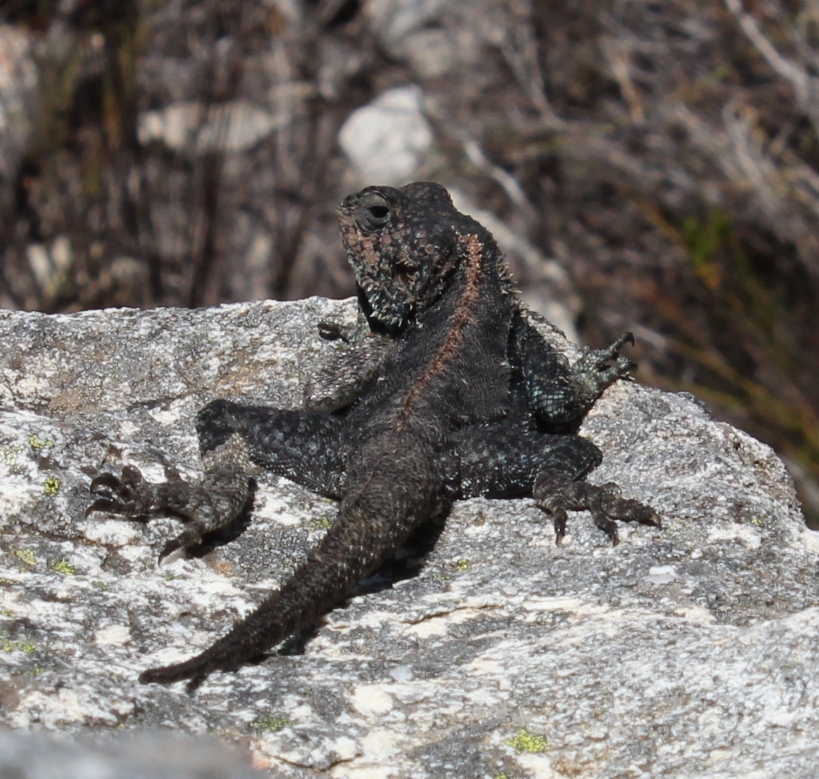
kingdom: Animalia
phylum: Chordata
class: Squamata
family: Agamidae
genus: Agama
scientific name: Agama atra
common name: Southern african rock agama
